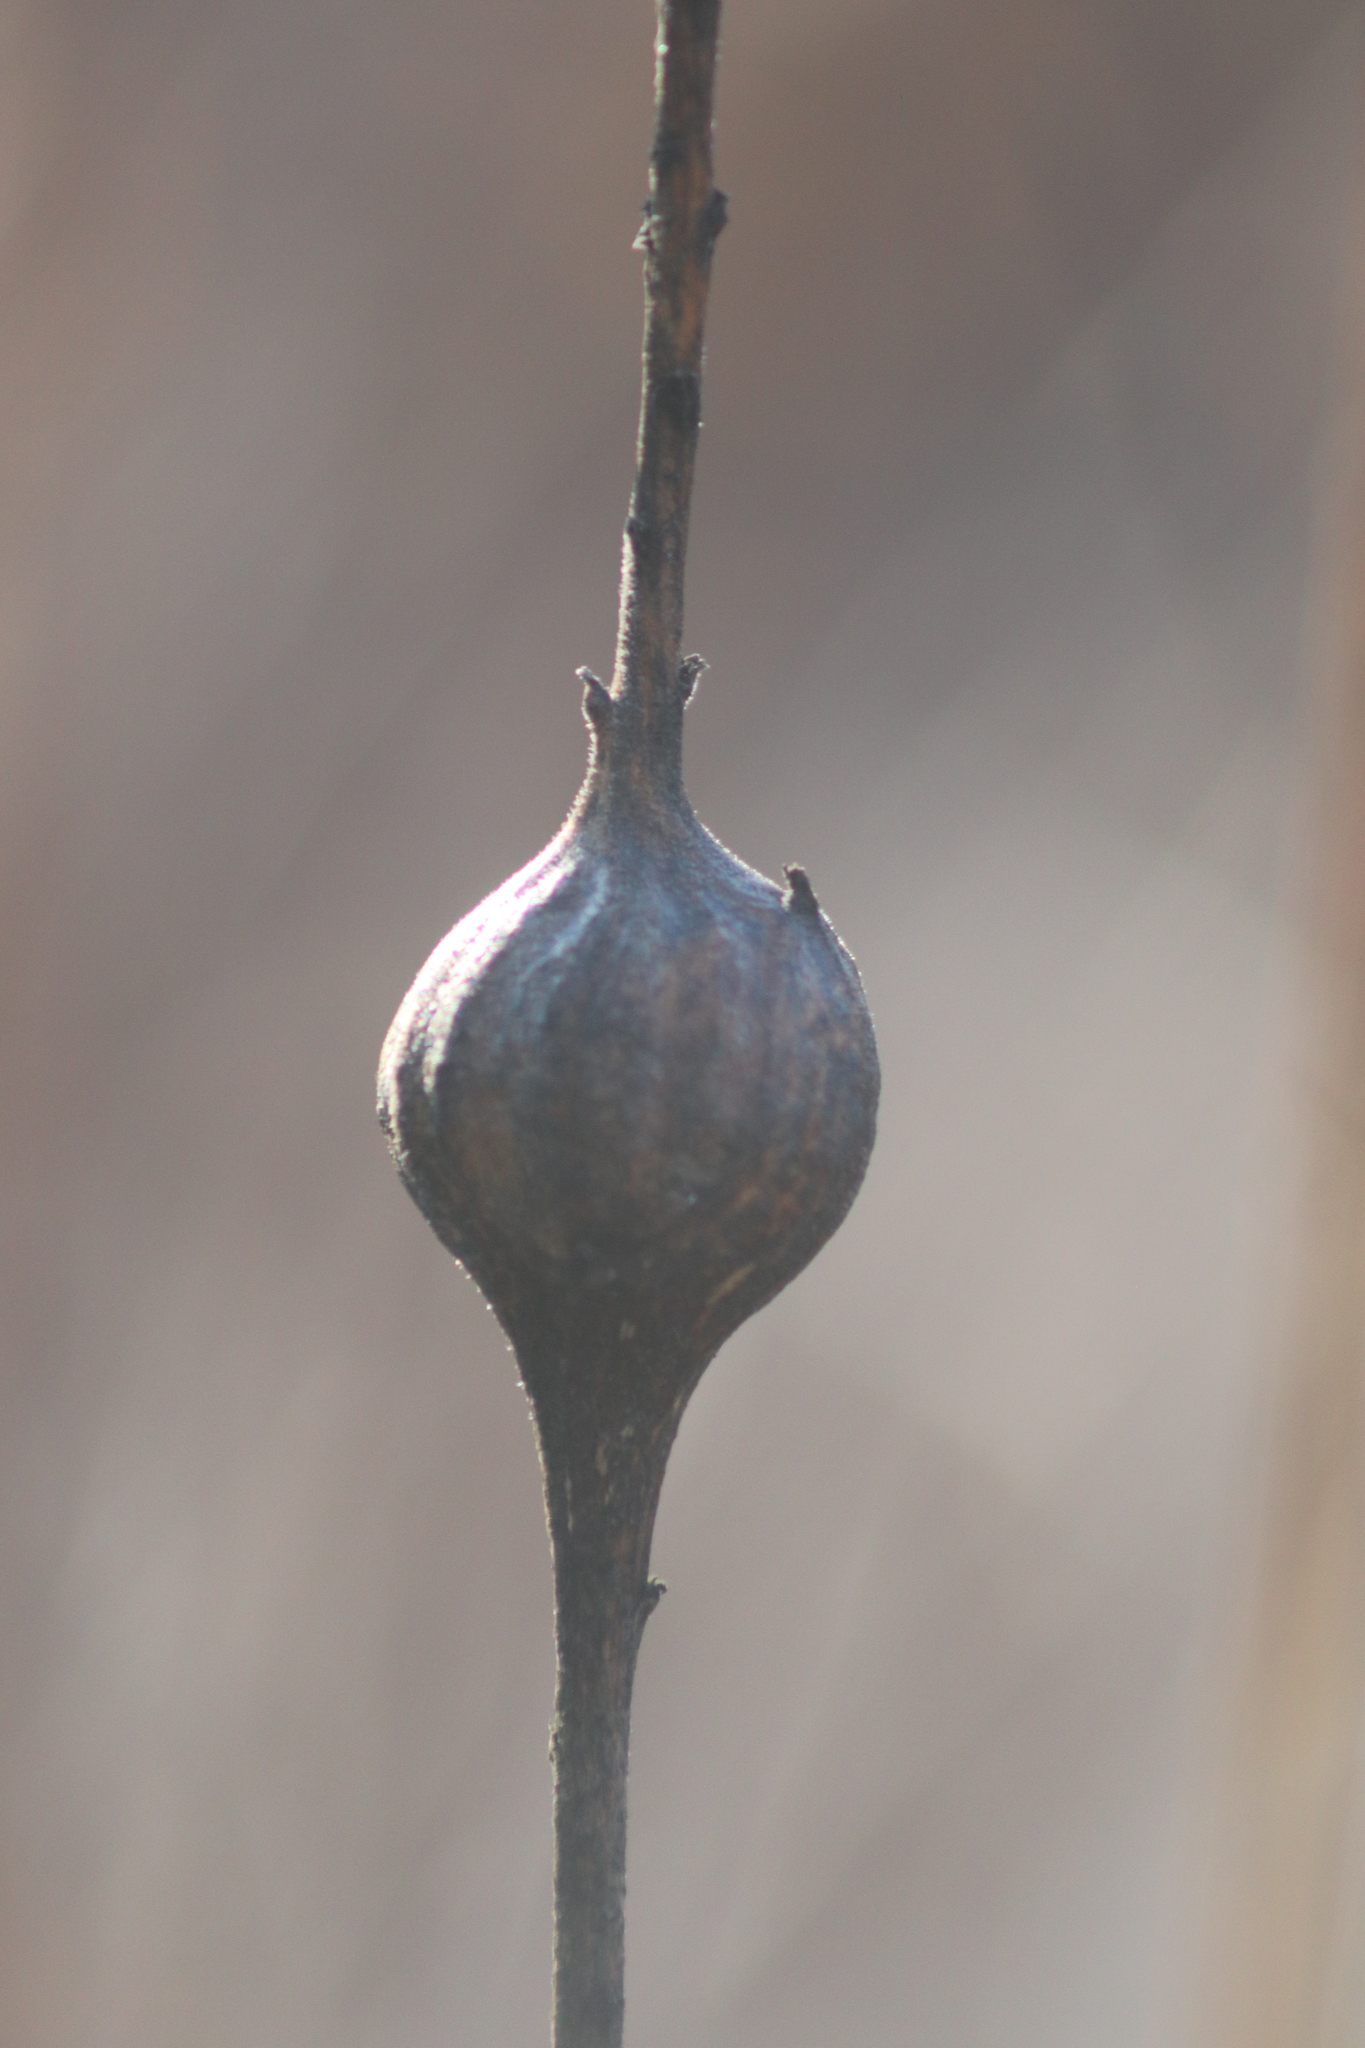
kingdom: Animalia
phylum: Arthropoda
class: Insecta
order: Diptera
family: Tephritidae
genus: Eurosta
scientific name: Eurosta solidaginis
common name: Goldenrod gall fly
